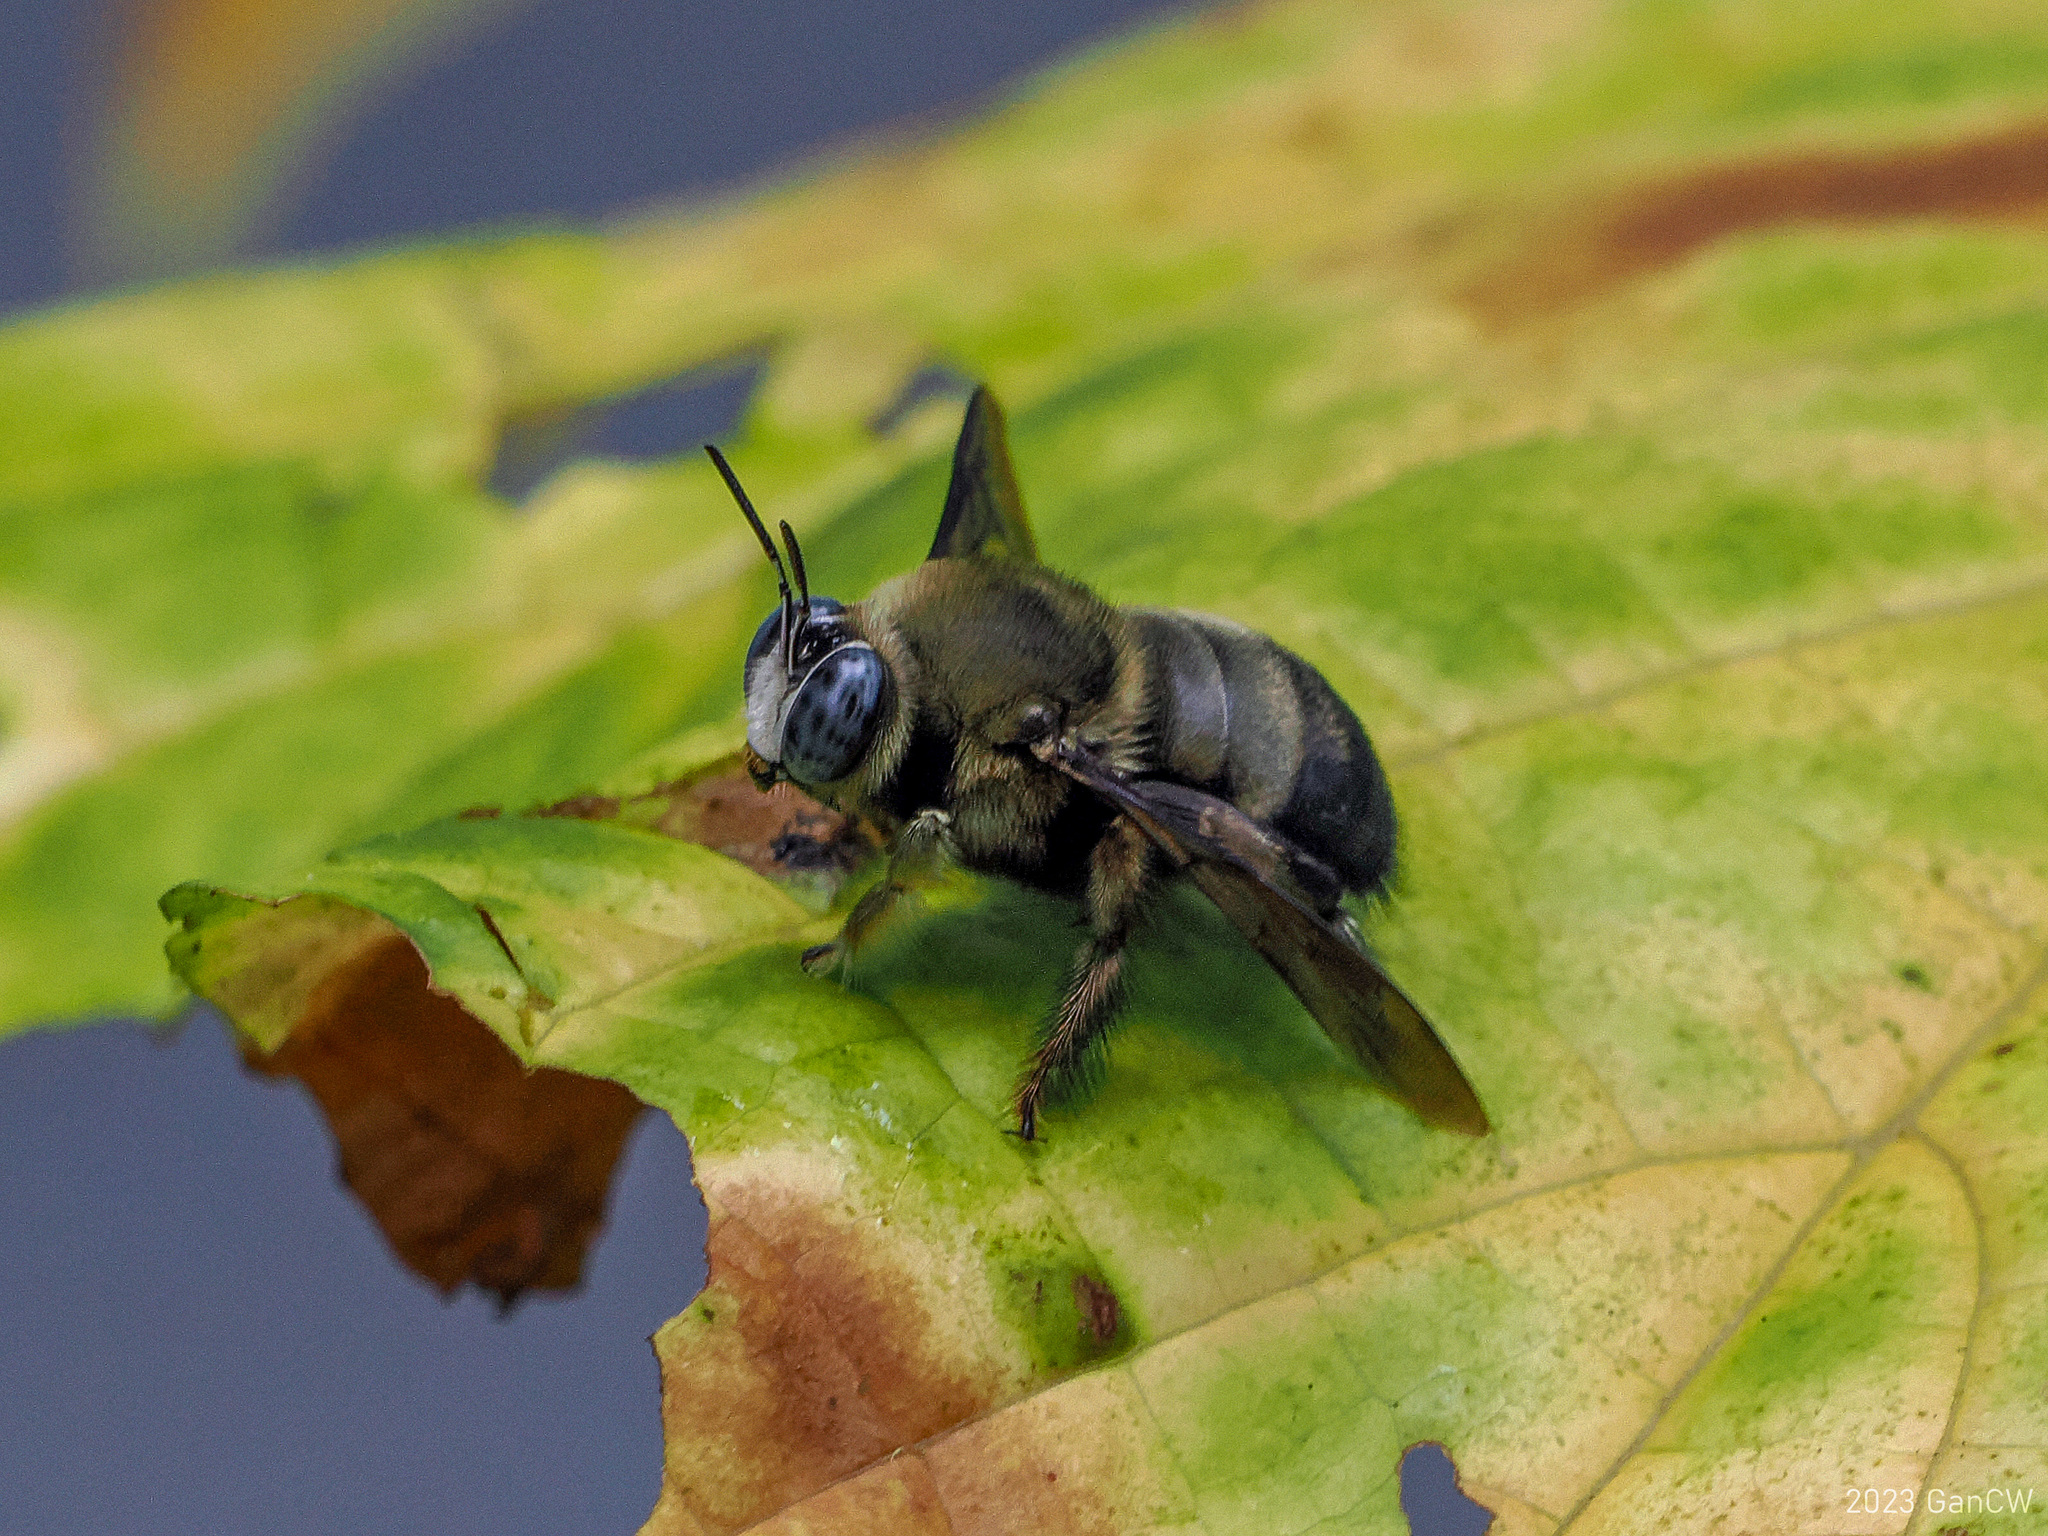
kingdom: Animalia
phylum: Arthropoda
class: Insecta
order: Hymenoptera
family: Apidae
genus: Xylocopa
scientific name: Xylocopa dejeanii
